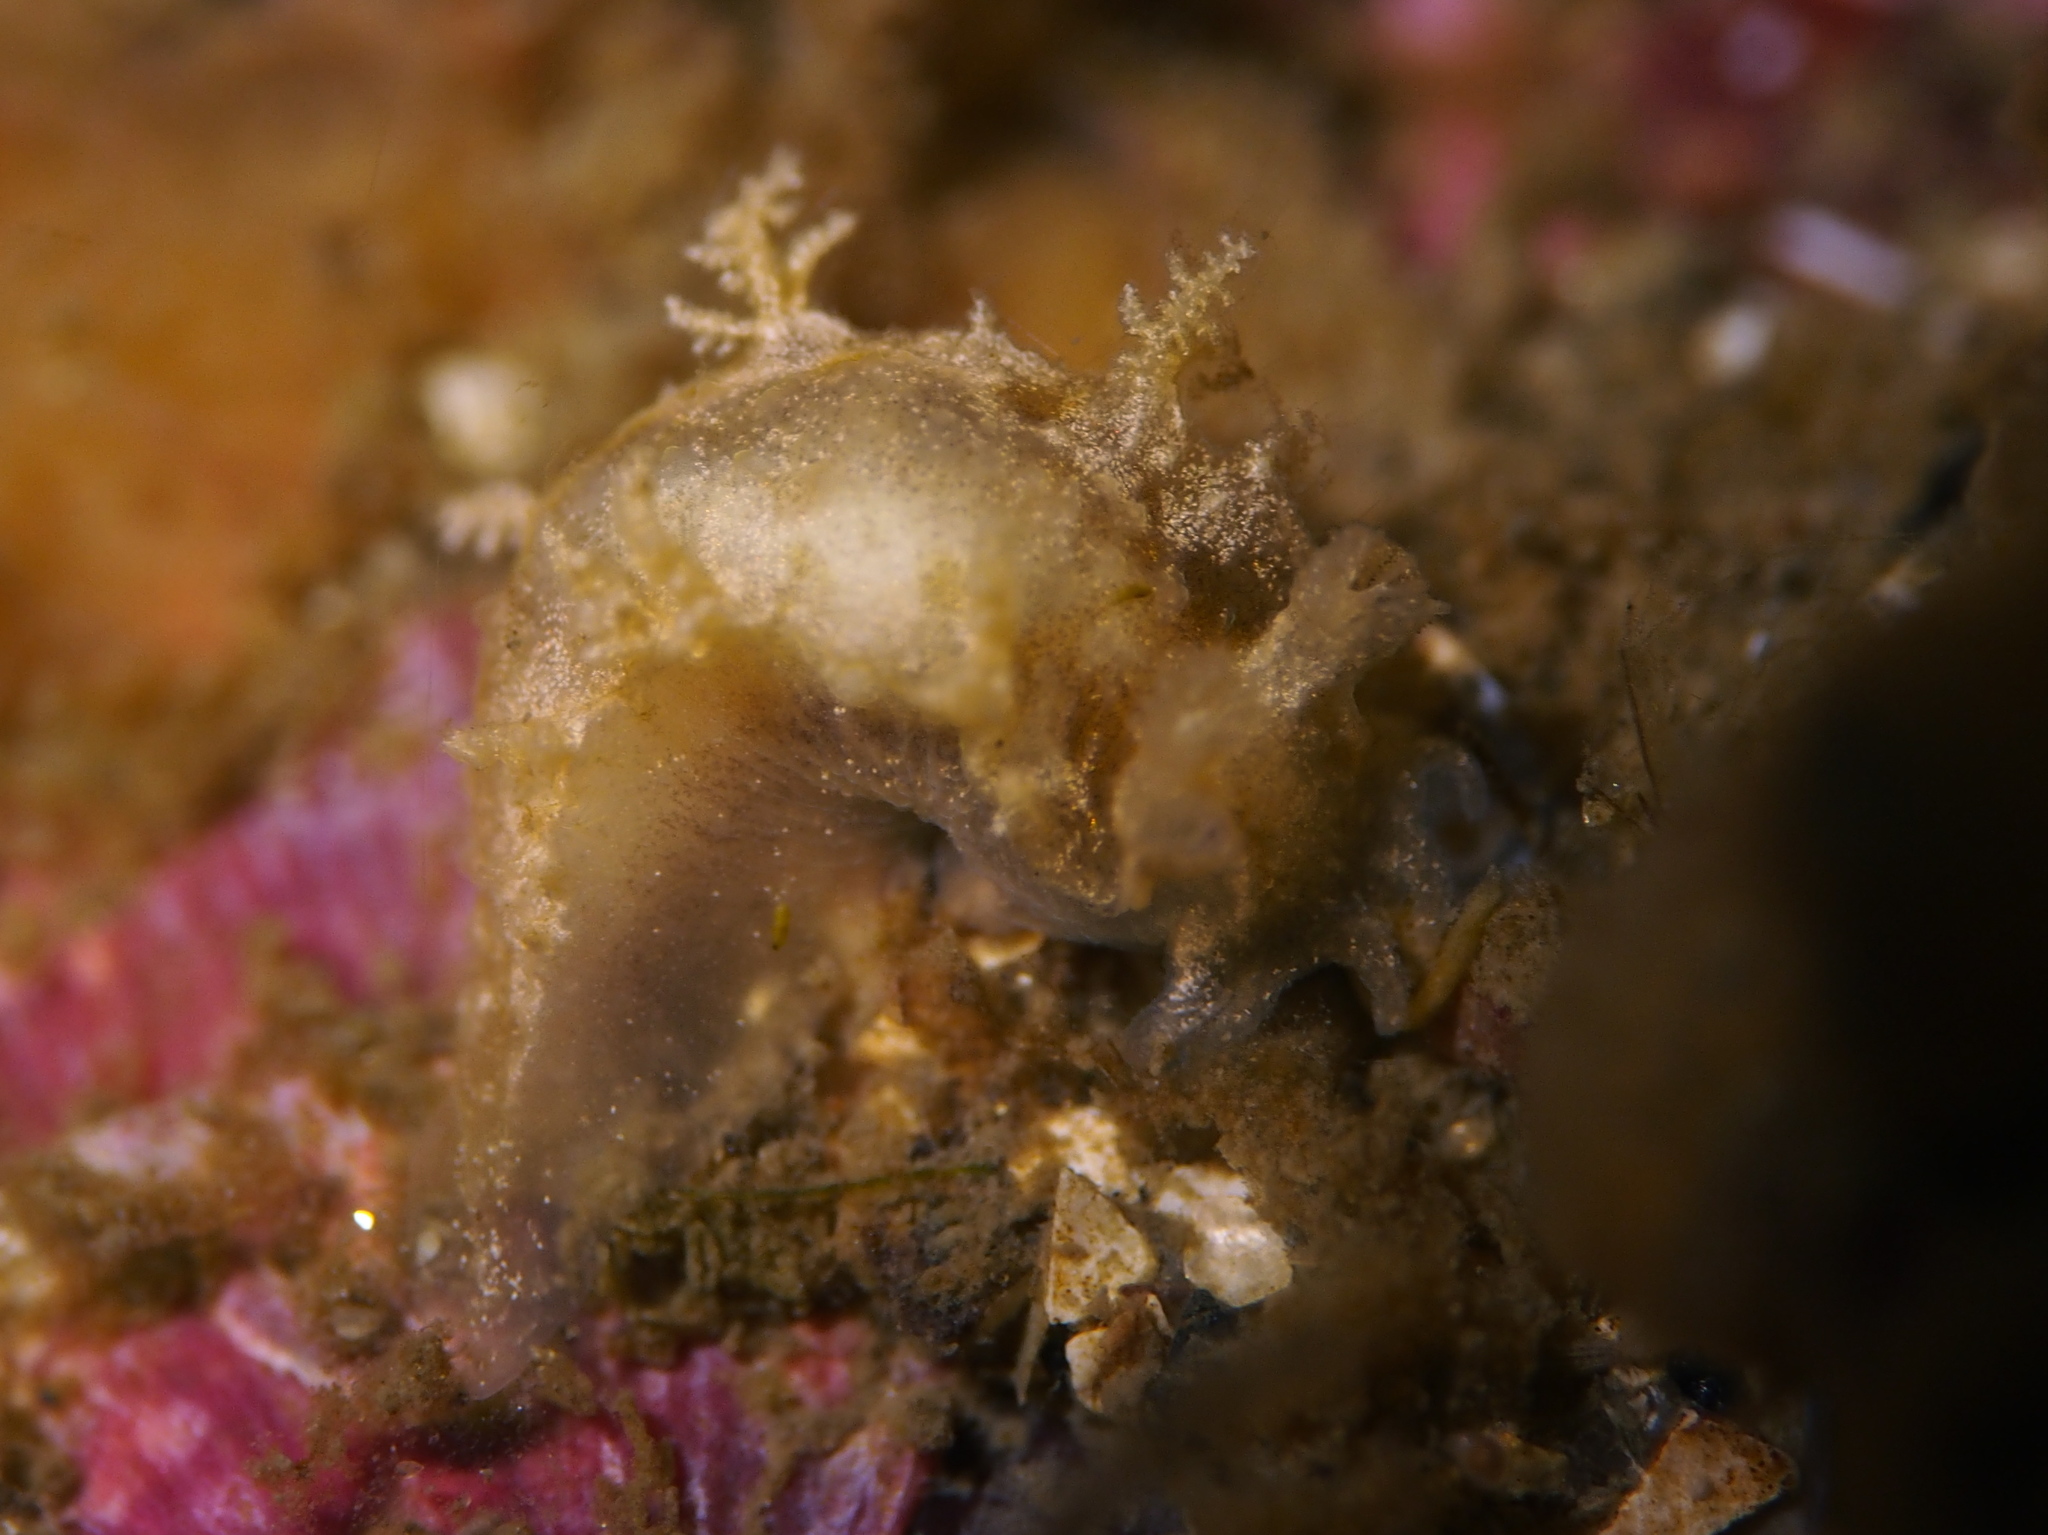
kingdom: Animalia
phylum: Mollusca
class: Gastropoda
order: Nudibranchia
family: Tritoniidae
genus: Duvaucelia
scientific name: Duvaucelia plebeia
